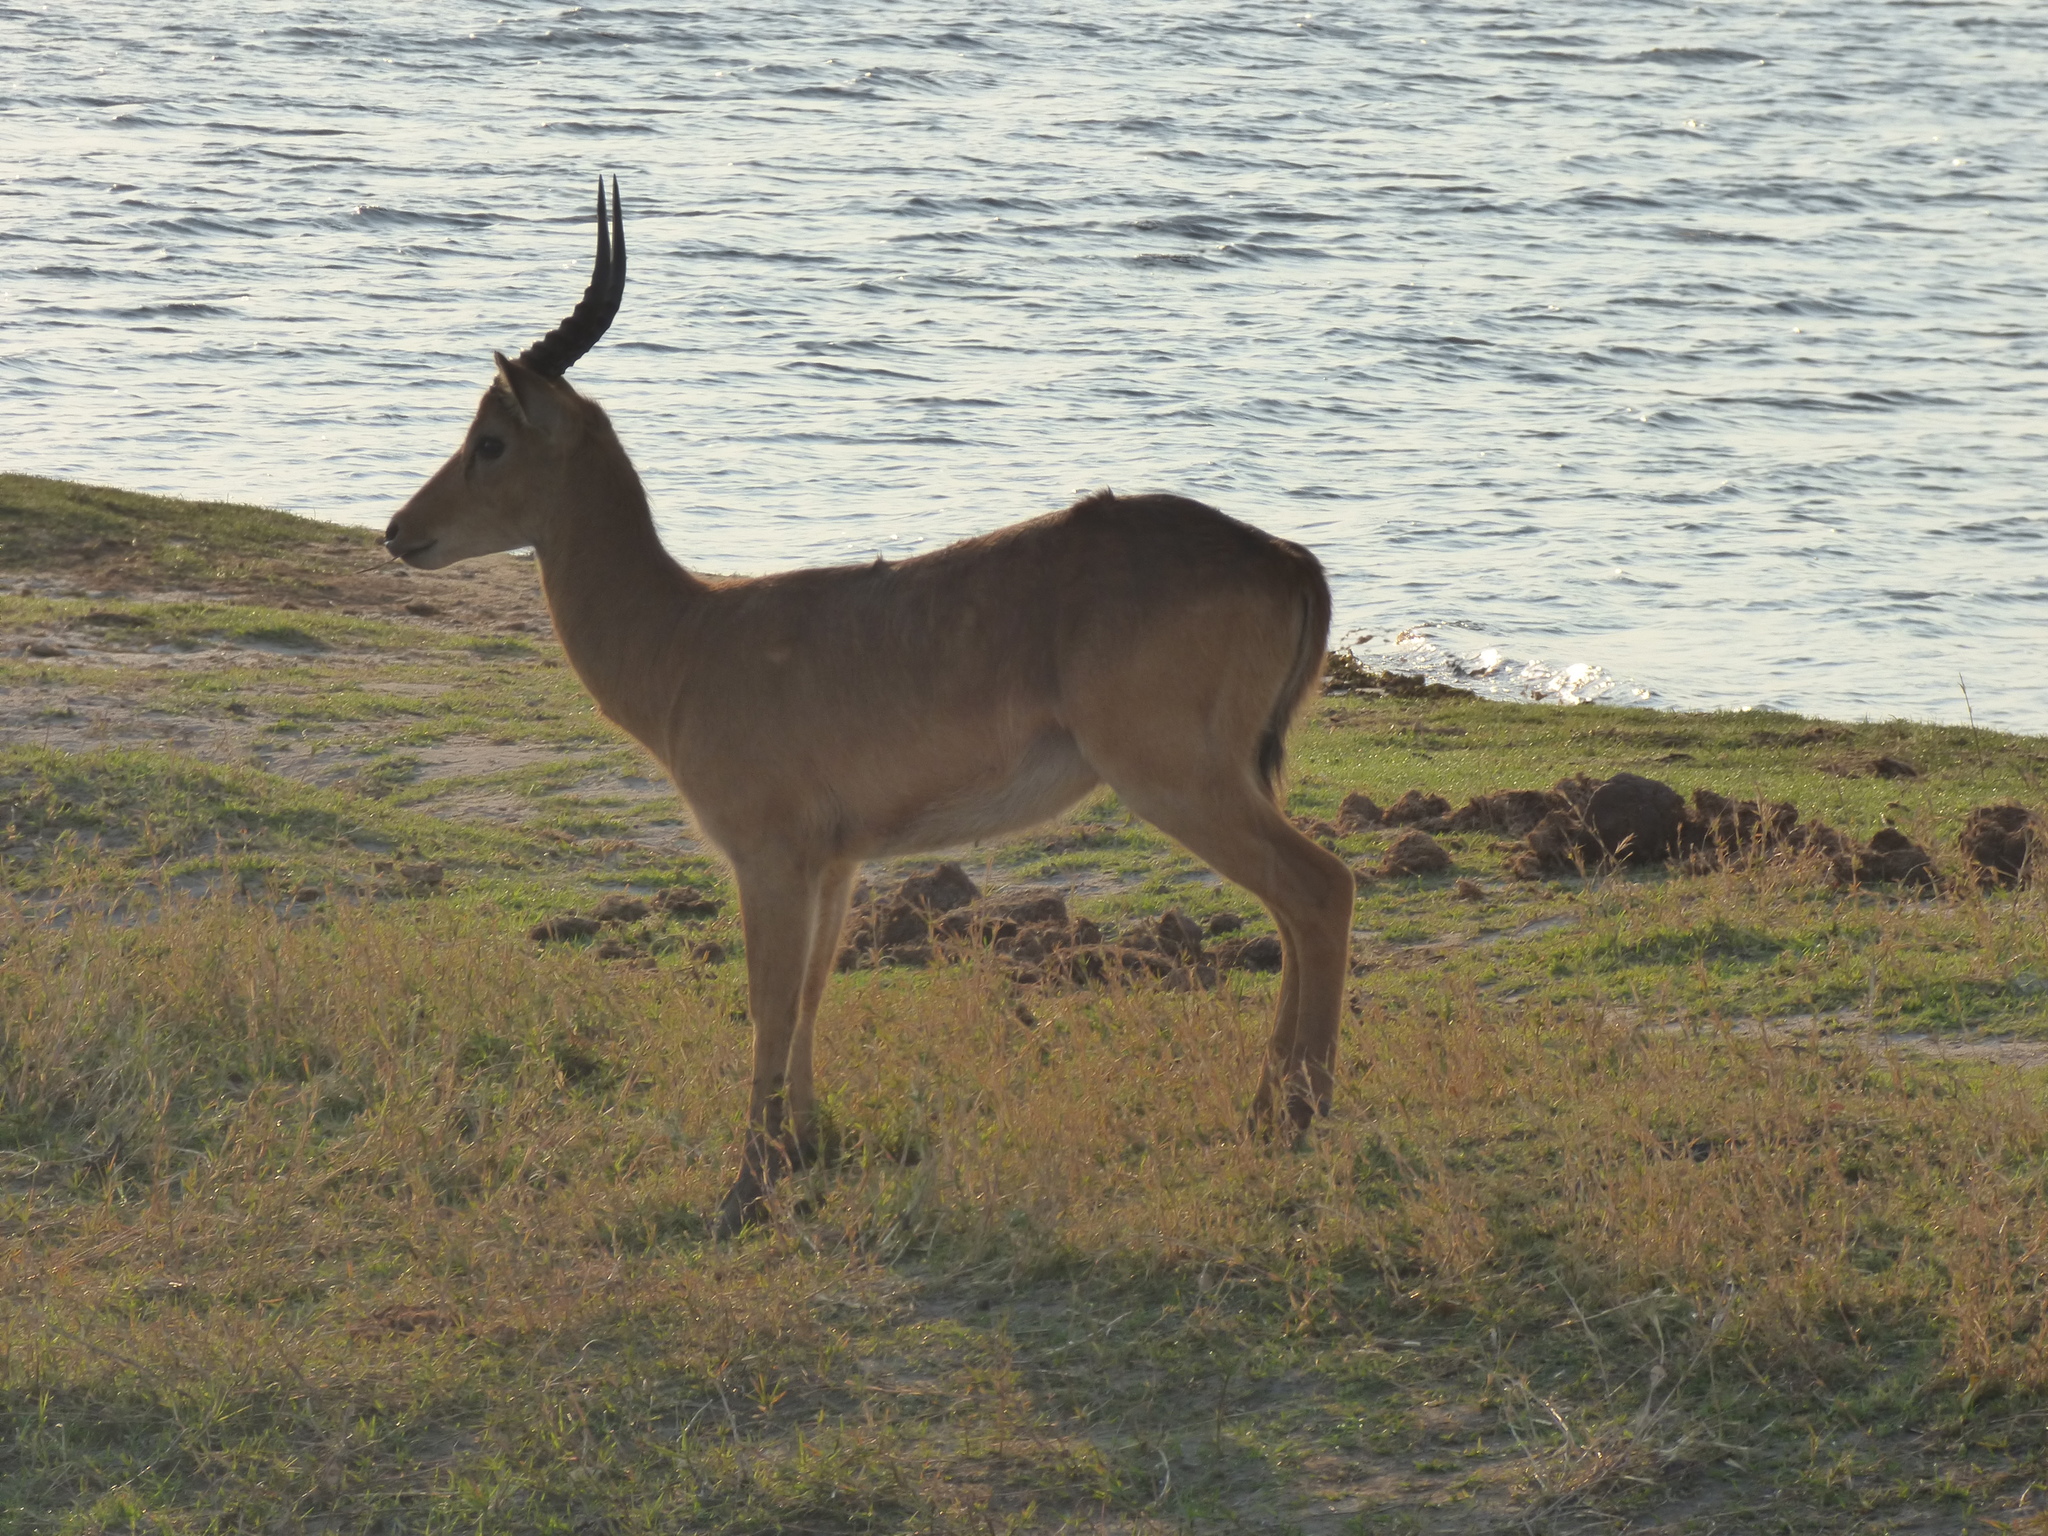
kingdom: Animalia
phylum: Chordata
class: Mammalia
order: Artiodactyla
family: Bovidae
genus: Kobus
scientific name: Kobus vardonii
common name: Puku
